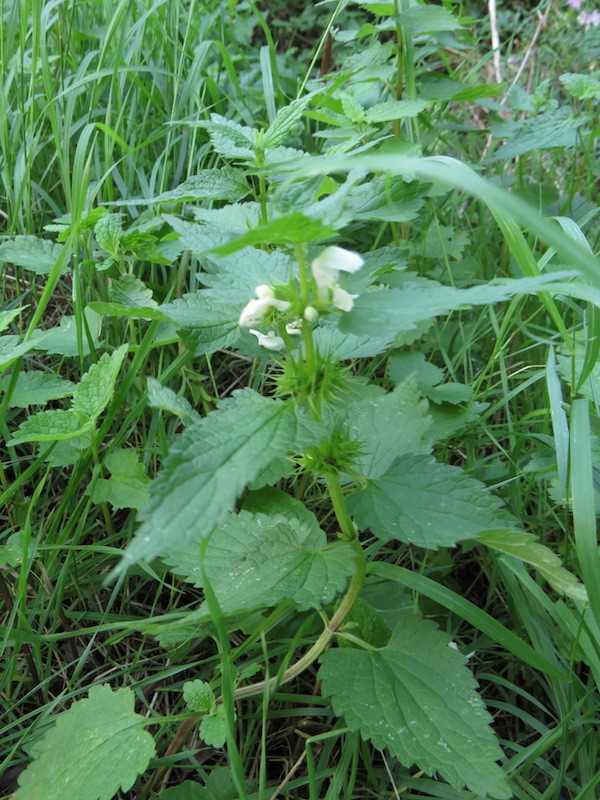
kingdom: Plantae
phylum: Tracheophyta
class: Magnoliopsida
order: Lamiales
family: Lamiaceae
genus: Lamium
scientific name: Lamium album
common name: White dead-nettle
